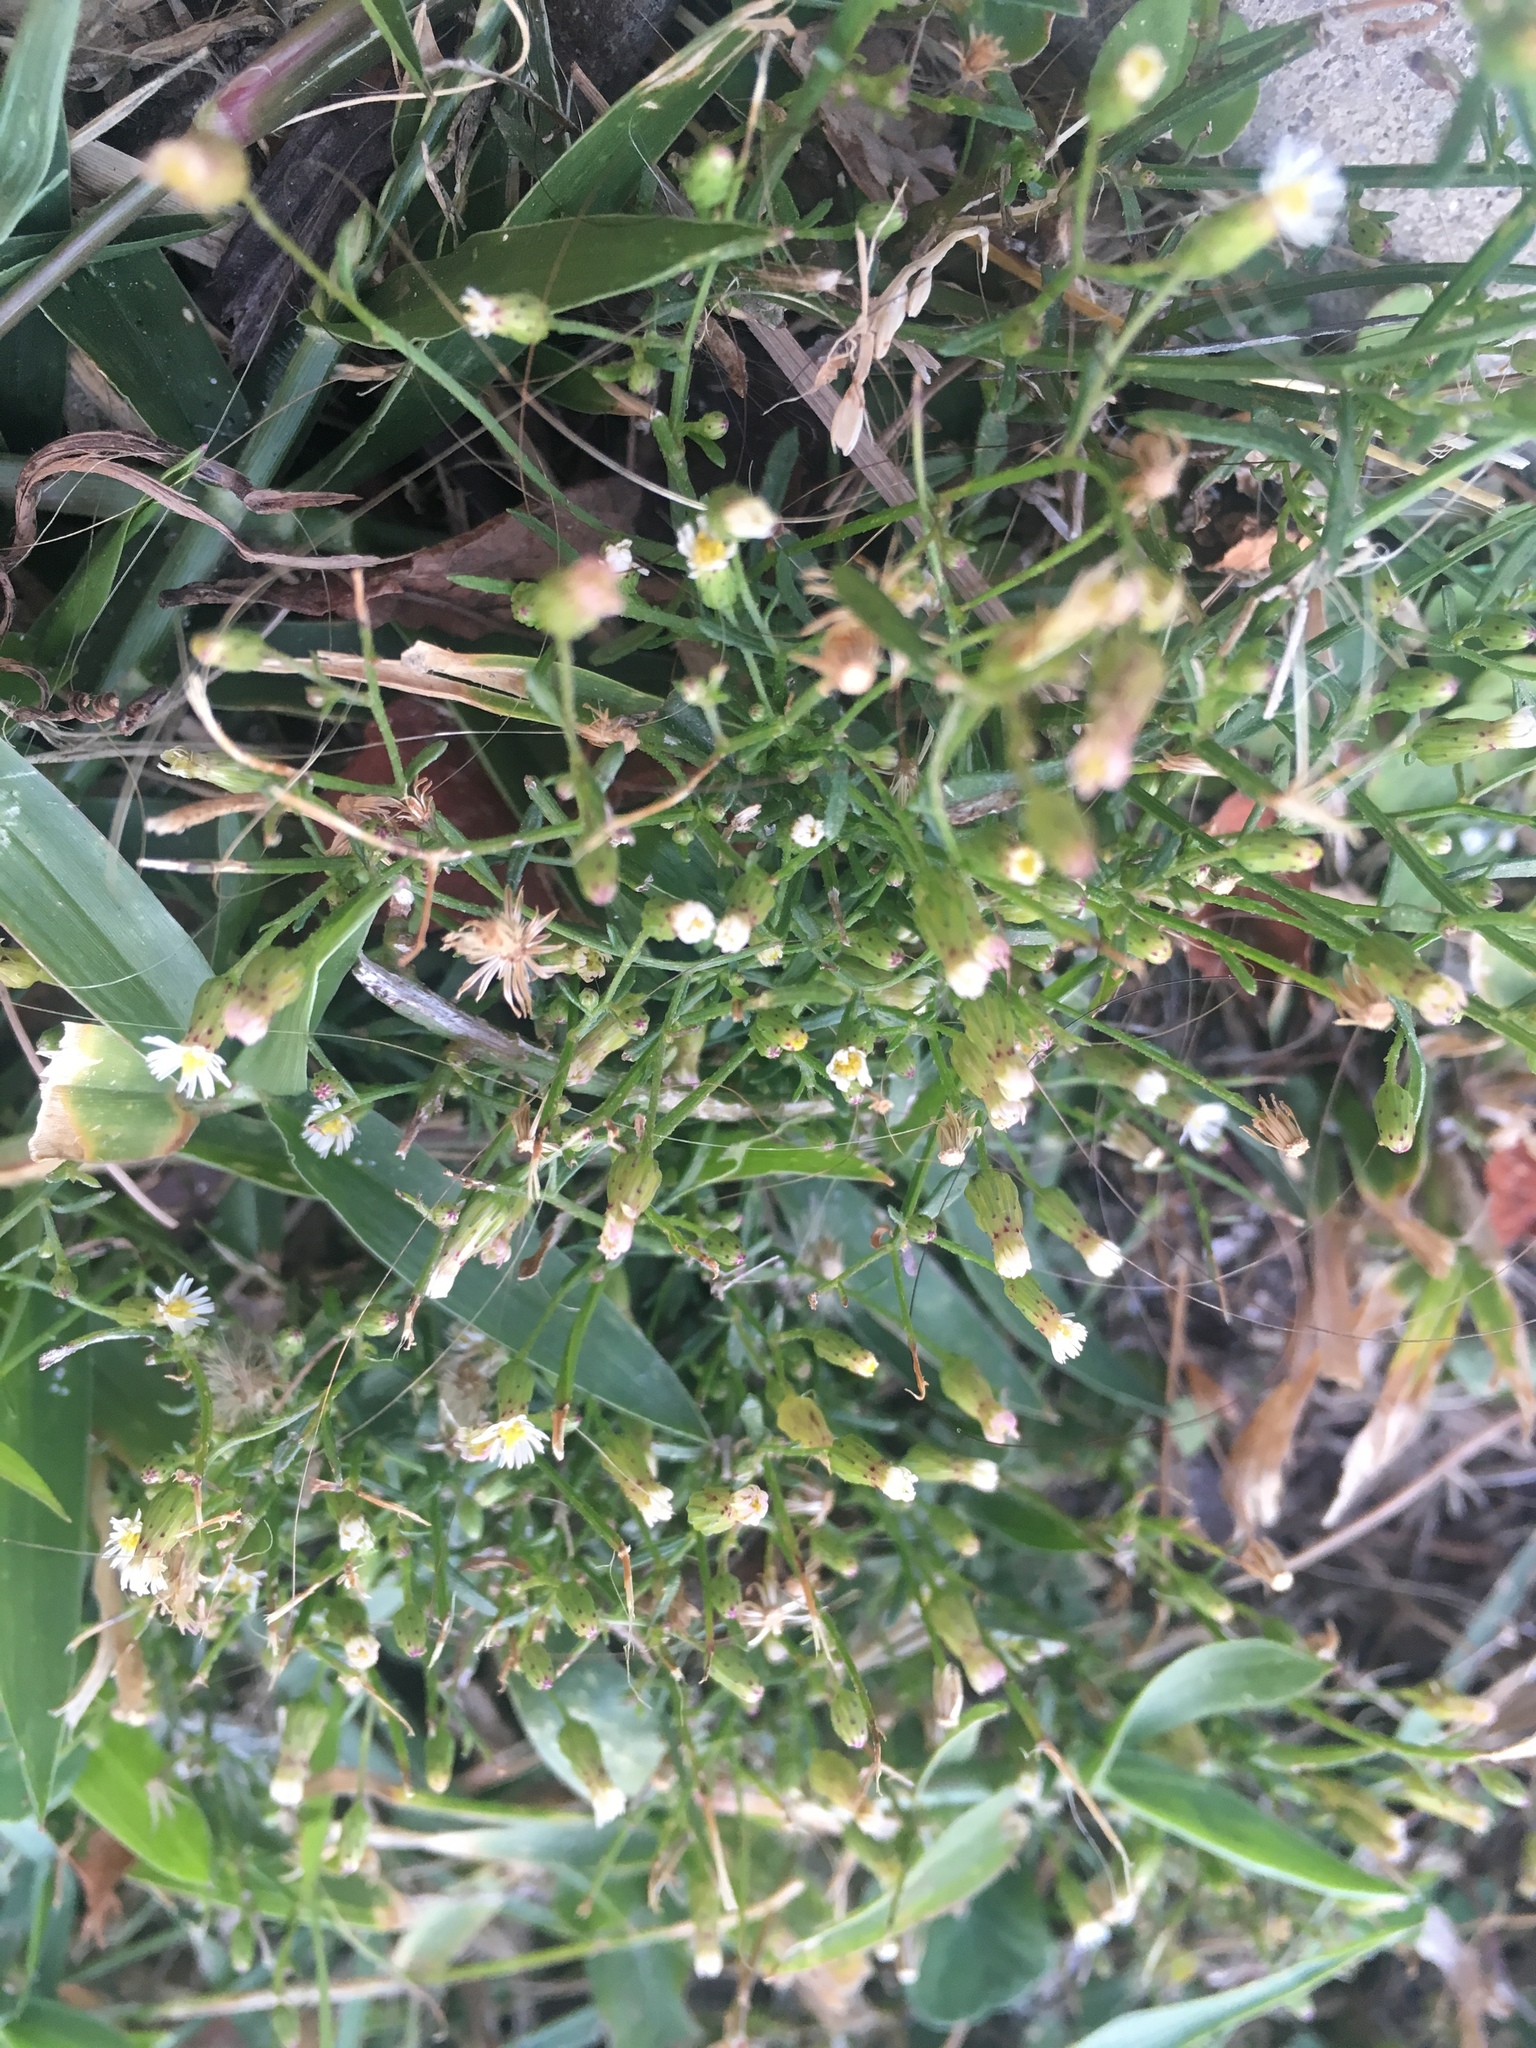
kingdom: Plantae
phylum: Tracheophyta
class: Magnoliopsida
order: Asterales
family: Asteraceae
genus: Erigeron
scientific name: Erigeron canadensis
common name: Canadian fleabane
